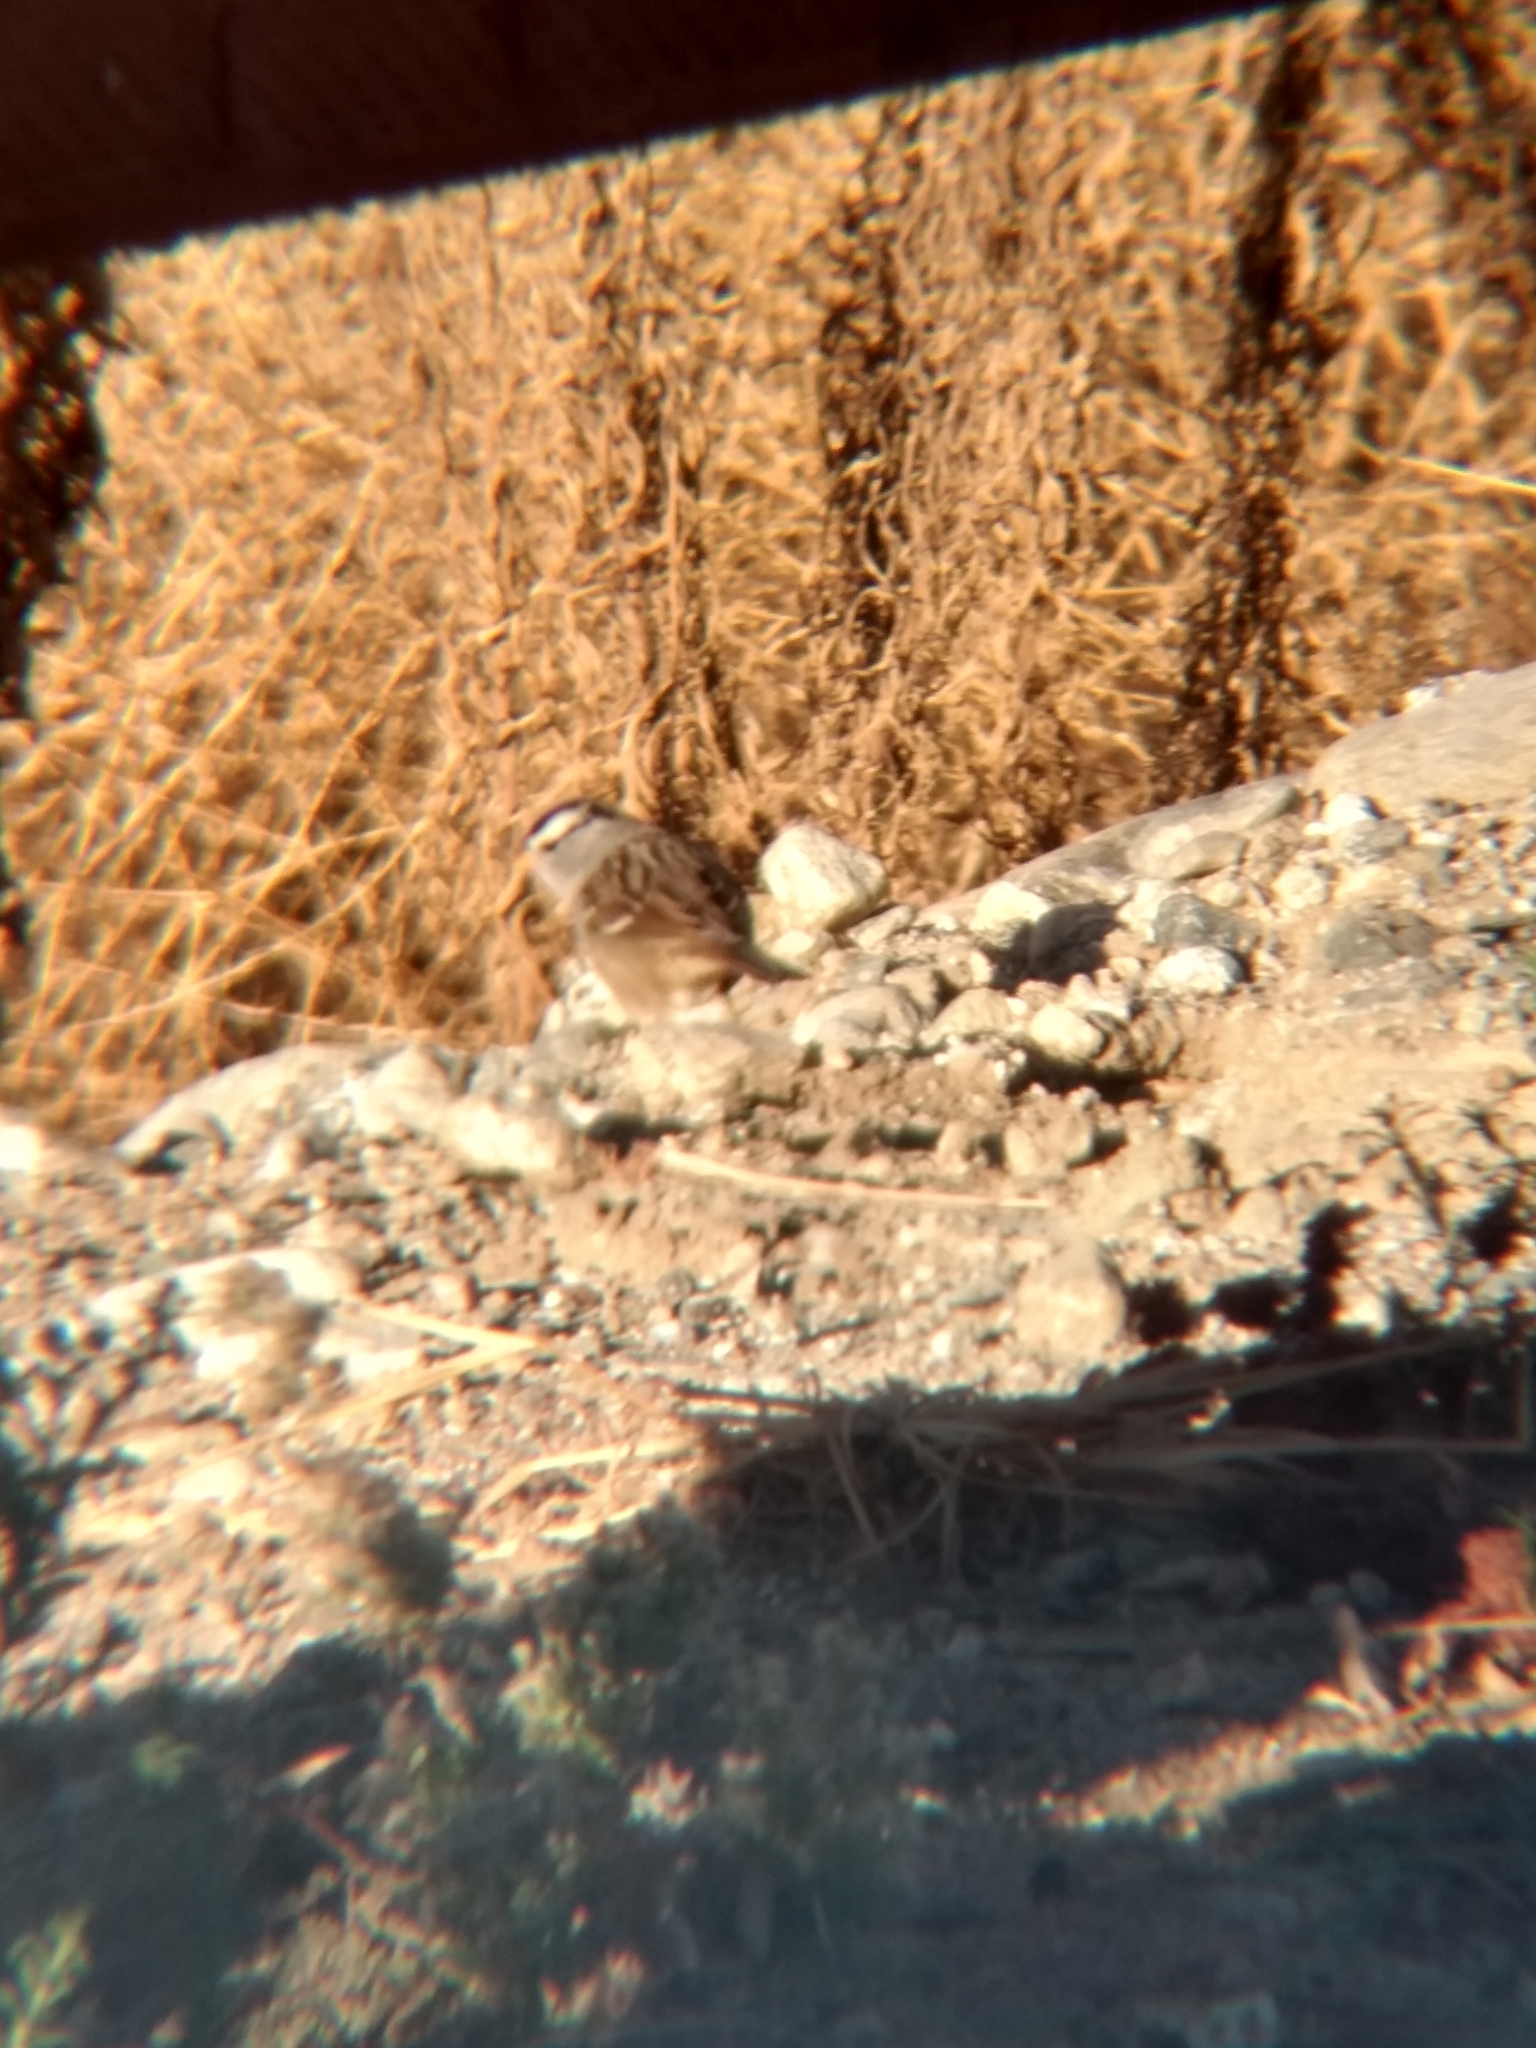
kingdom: Animalia
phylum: Chordata
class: Aves
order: Passeriformes
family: Passerellidae
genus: Zonotrichia
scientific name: Zonotrichia leucophrys
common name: White-crowned sparrow
